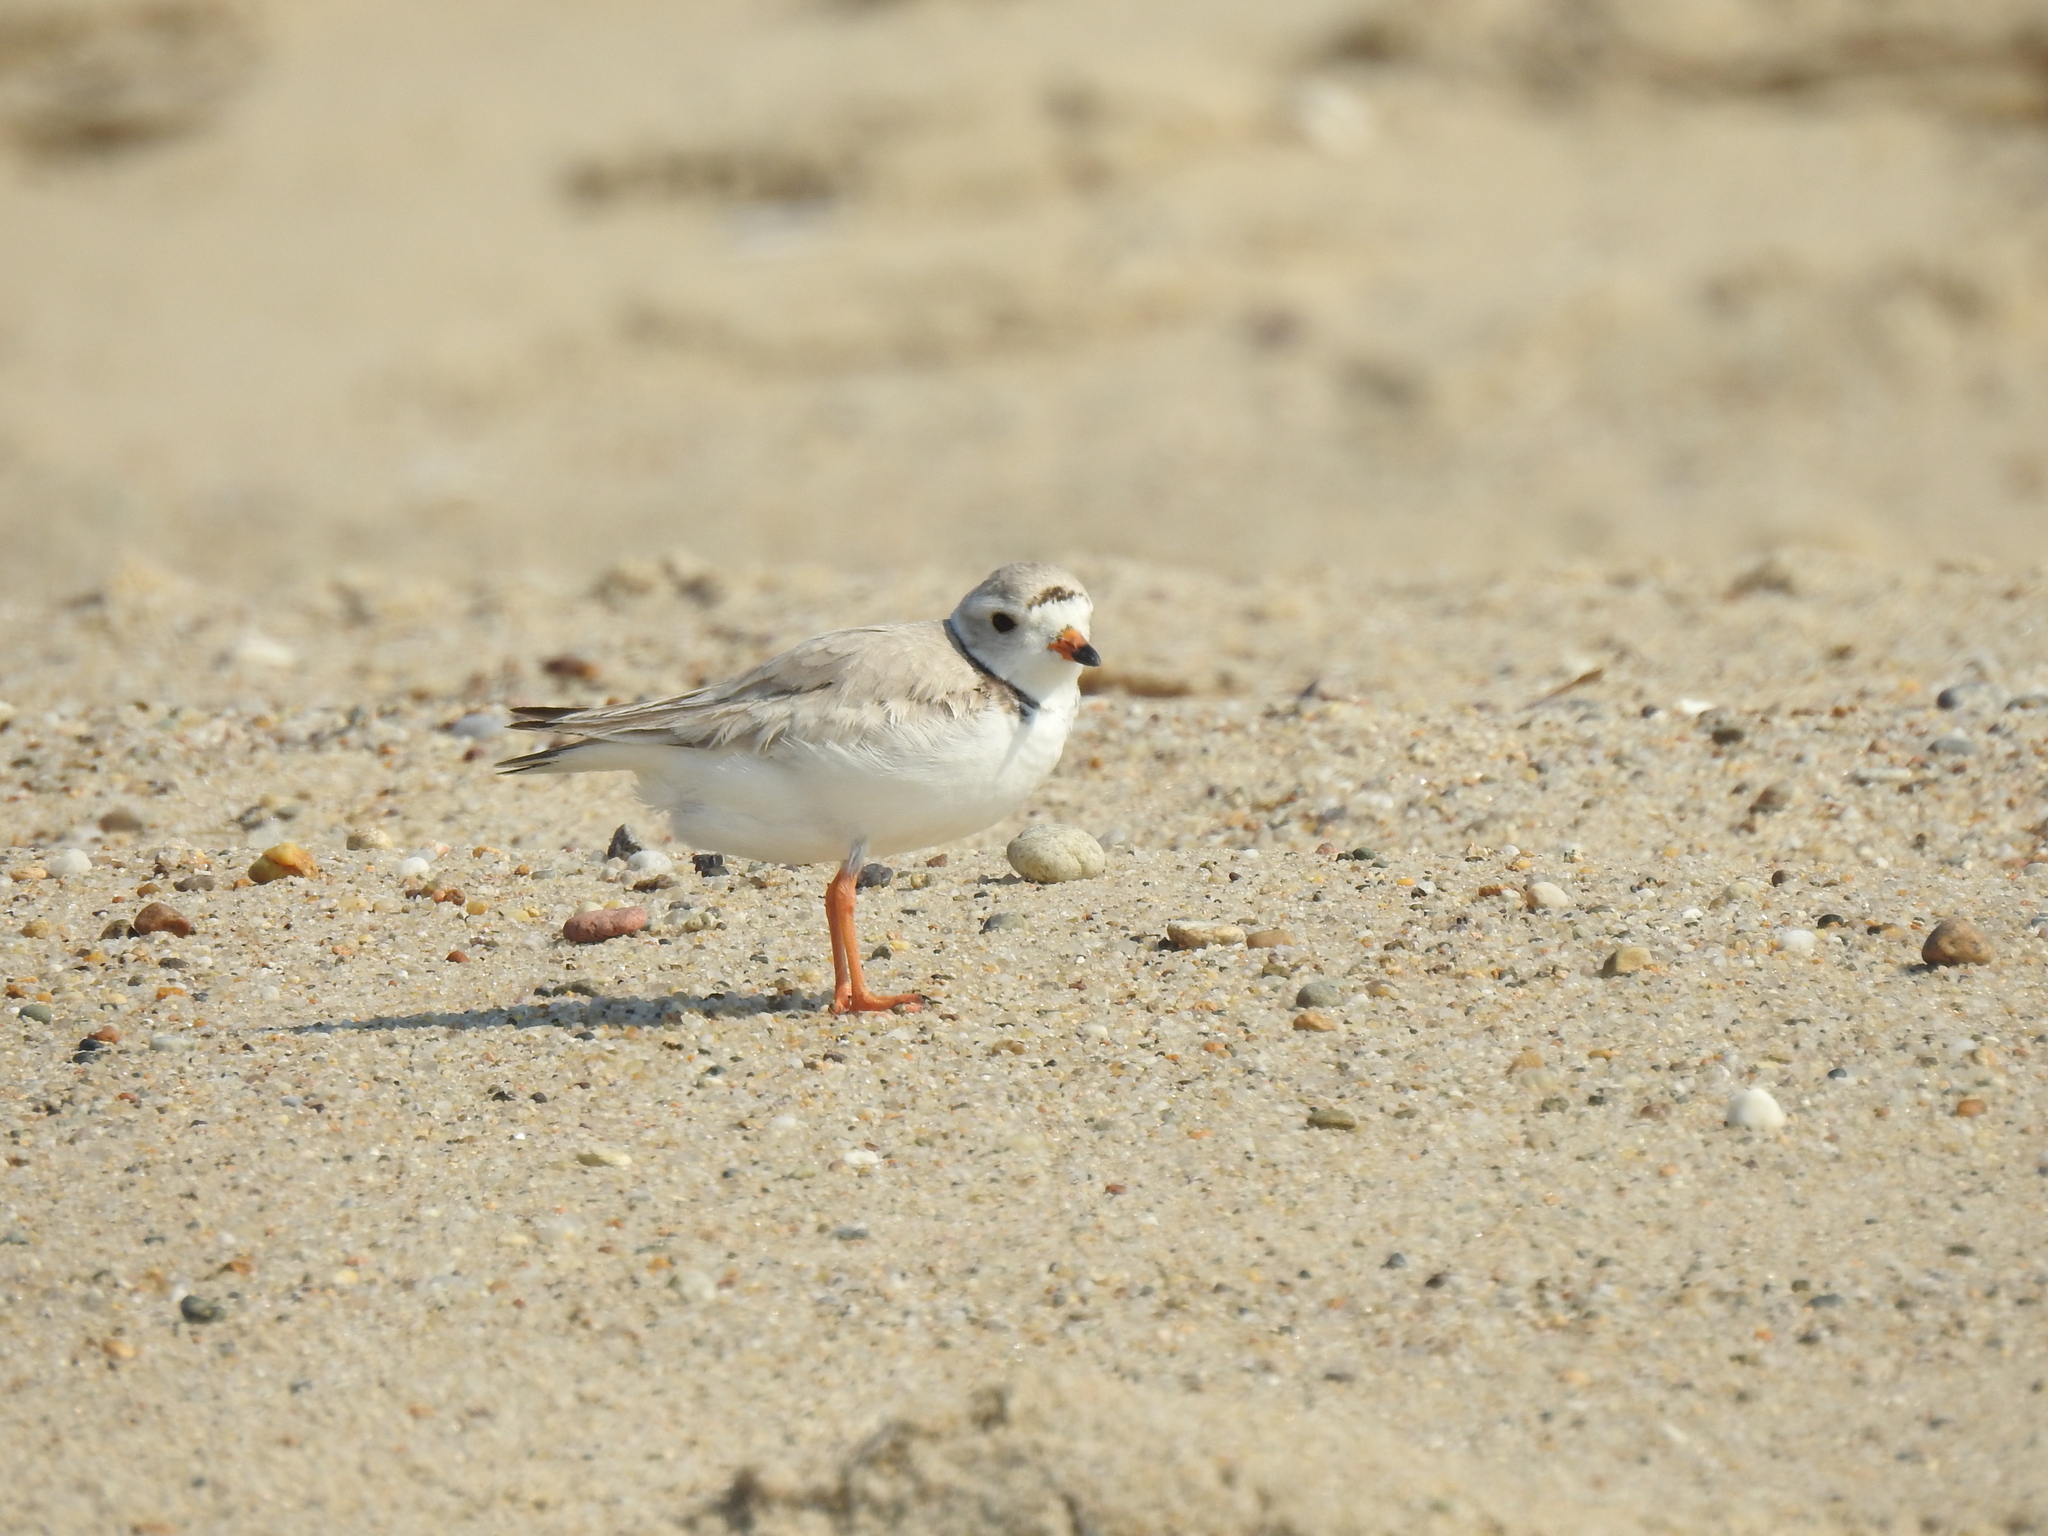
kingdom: Animalia
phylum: Chordata
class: Aves
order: Charadriiformes
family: Charadriidae
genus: Charadrius
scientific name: Charadrius melodus
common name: Piping plover
